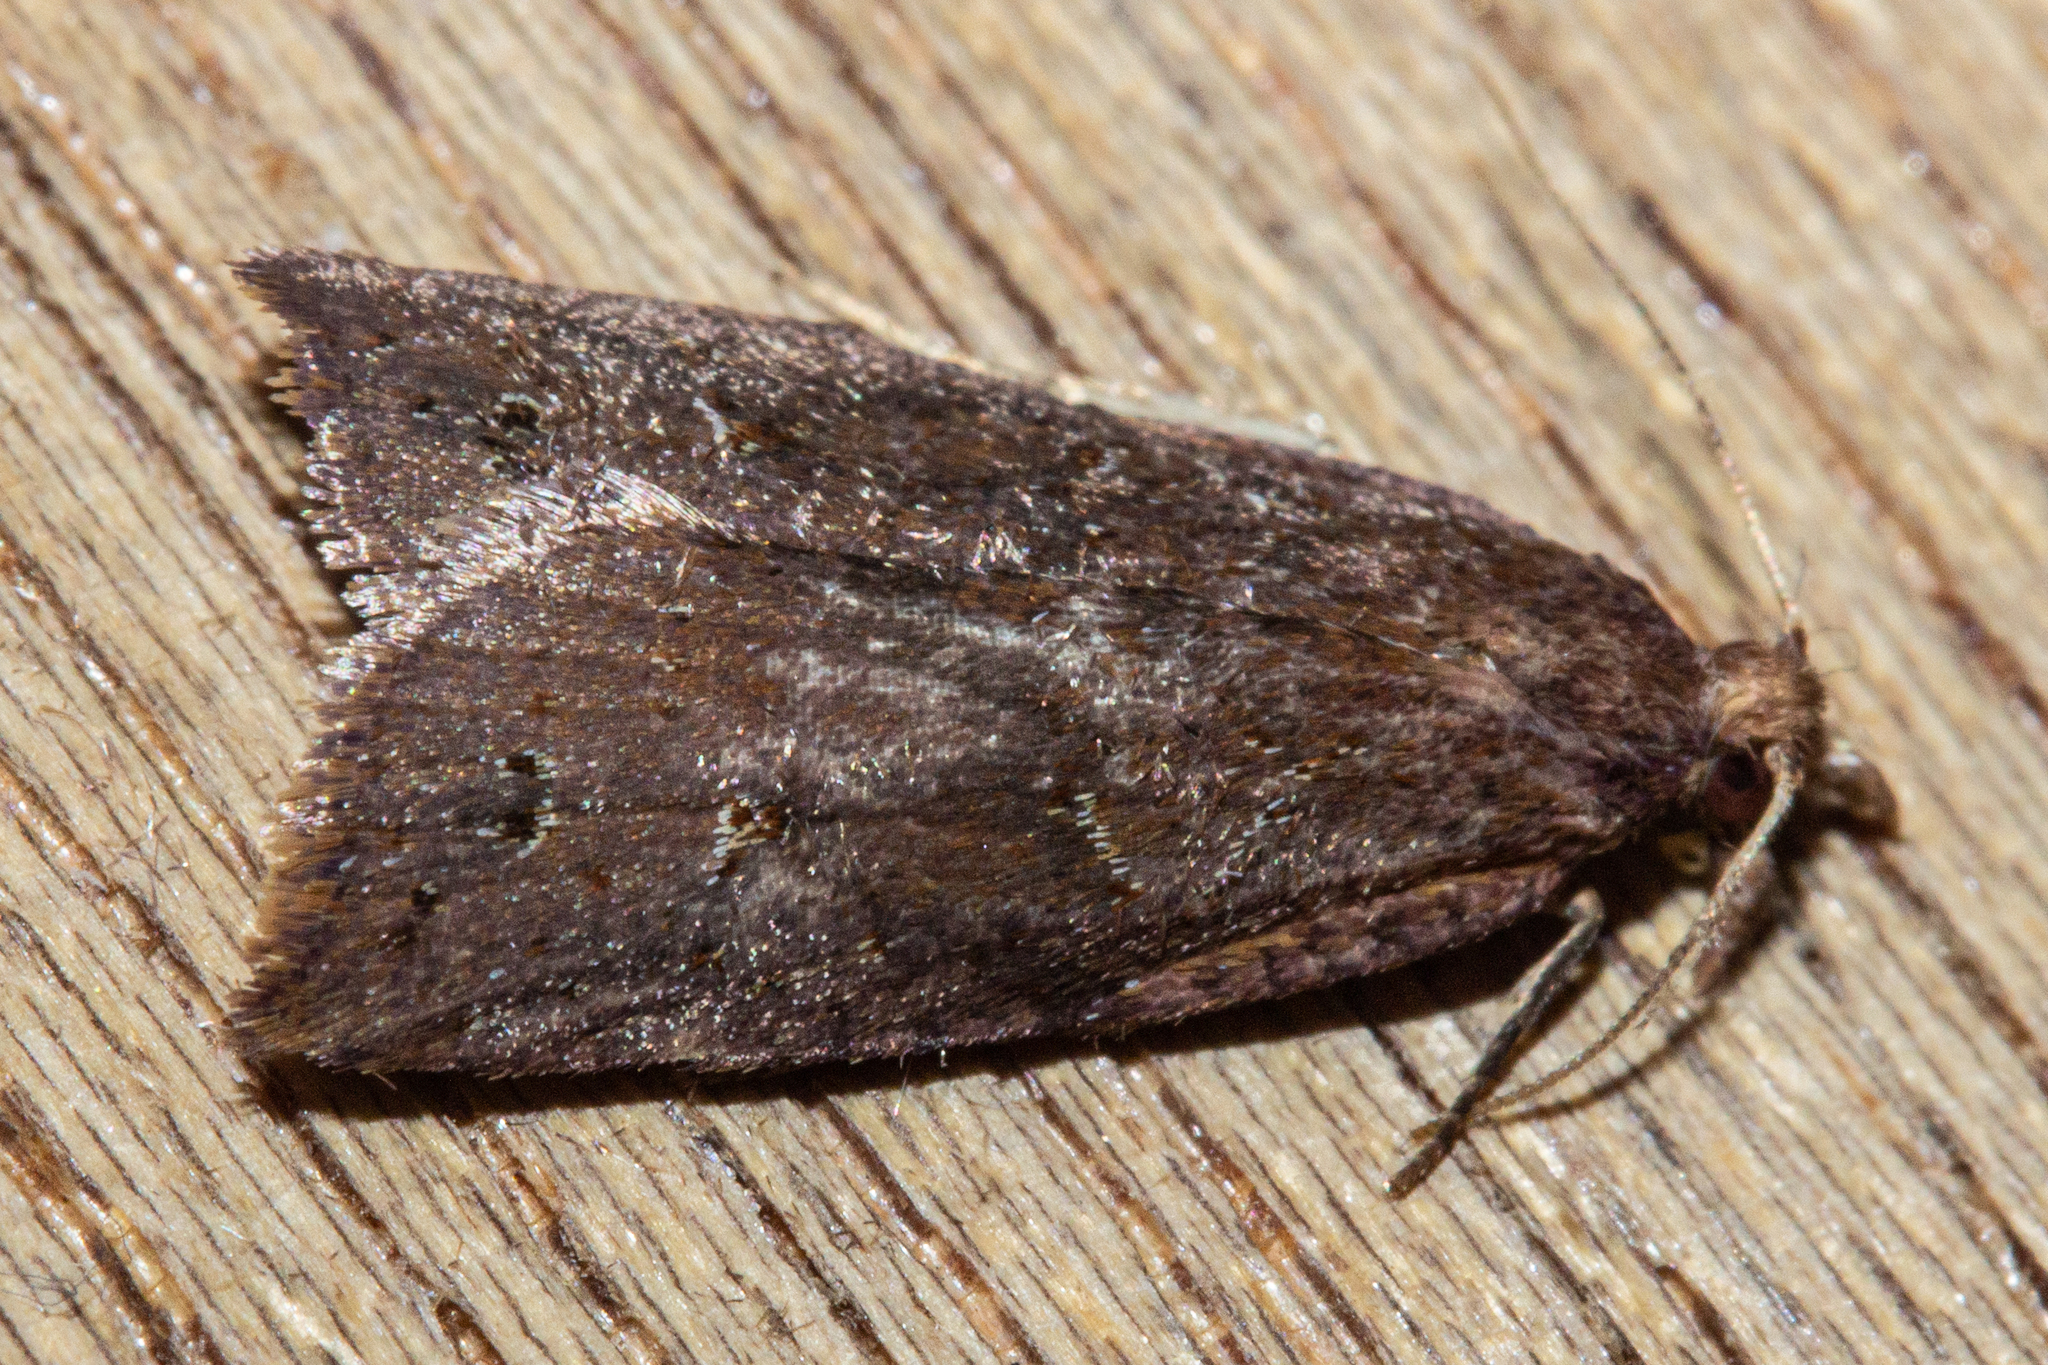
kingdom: Animalia
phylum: Arthropoda
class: Insecta
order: Lepidoptera
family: Tortricidae
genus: Planotortrix
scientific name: Planotortrix notophaea
